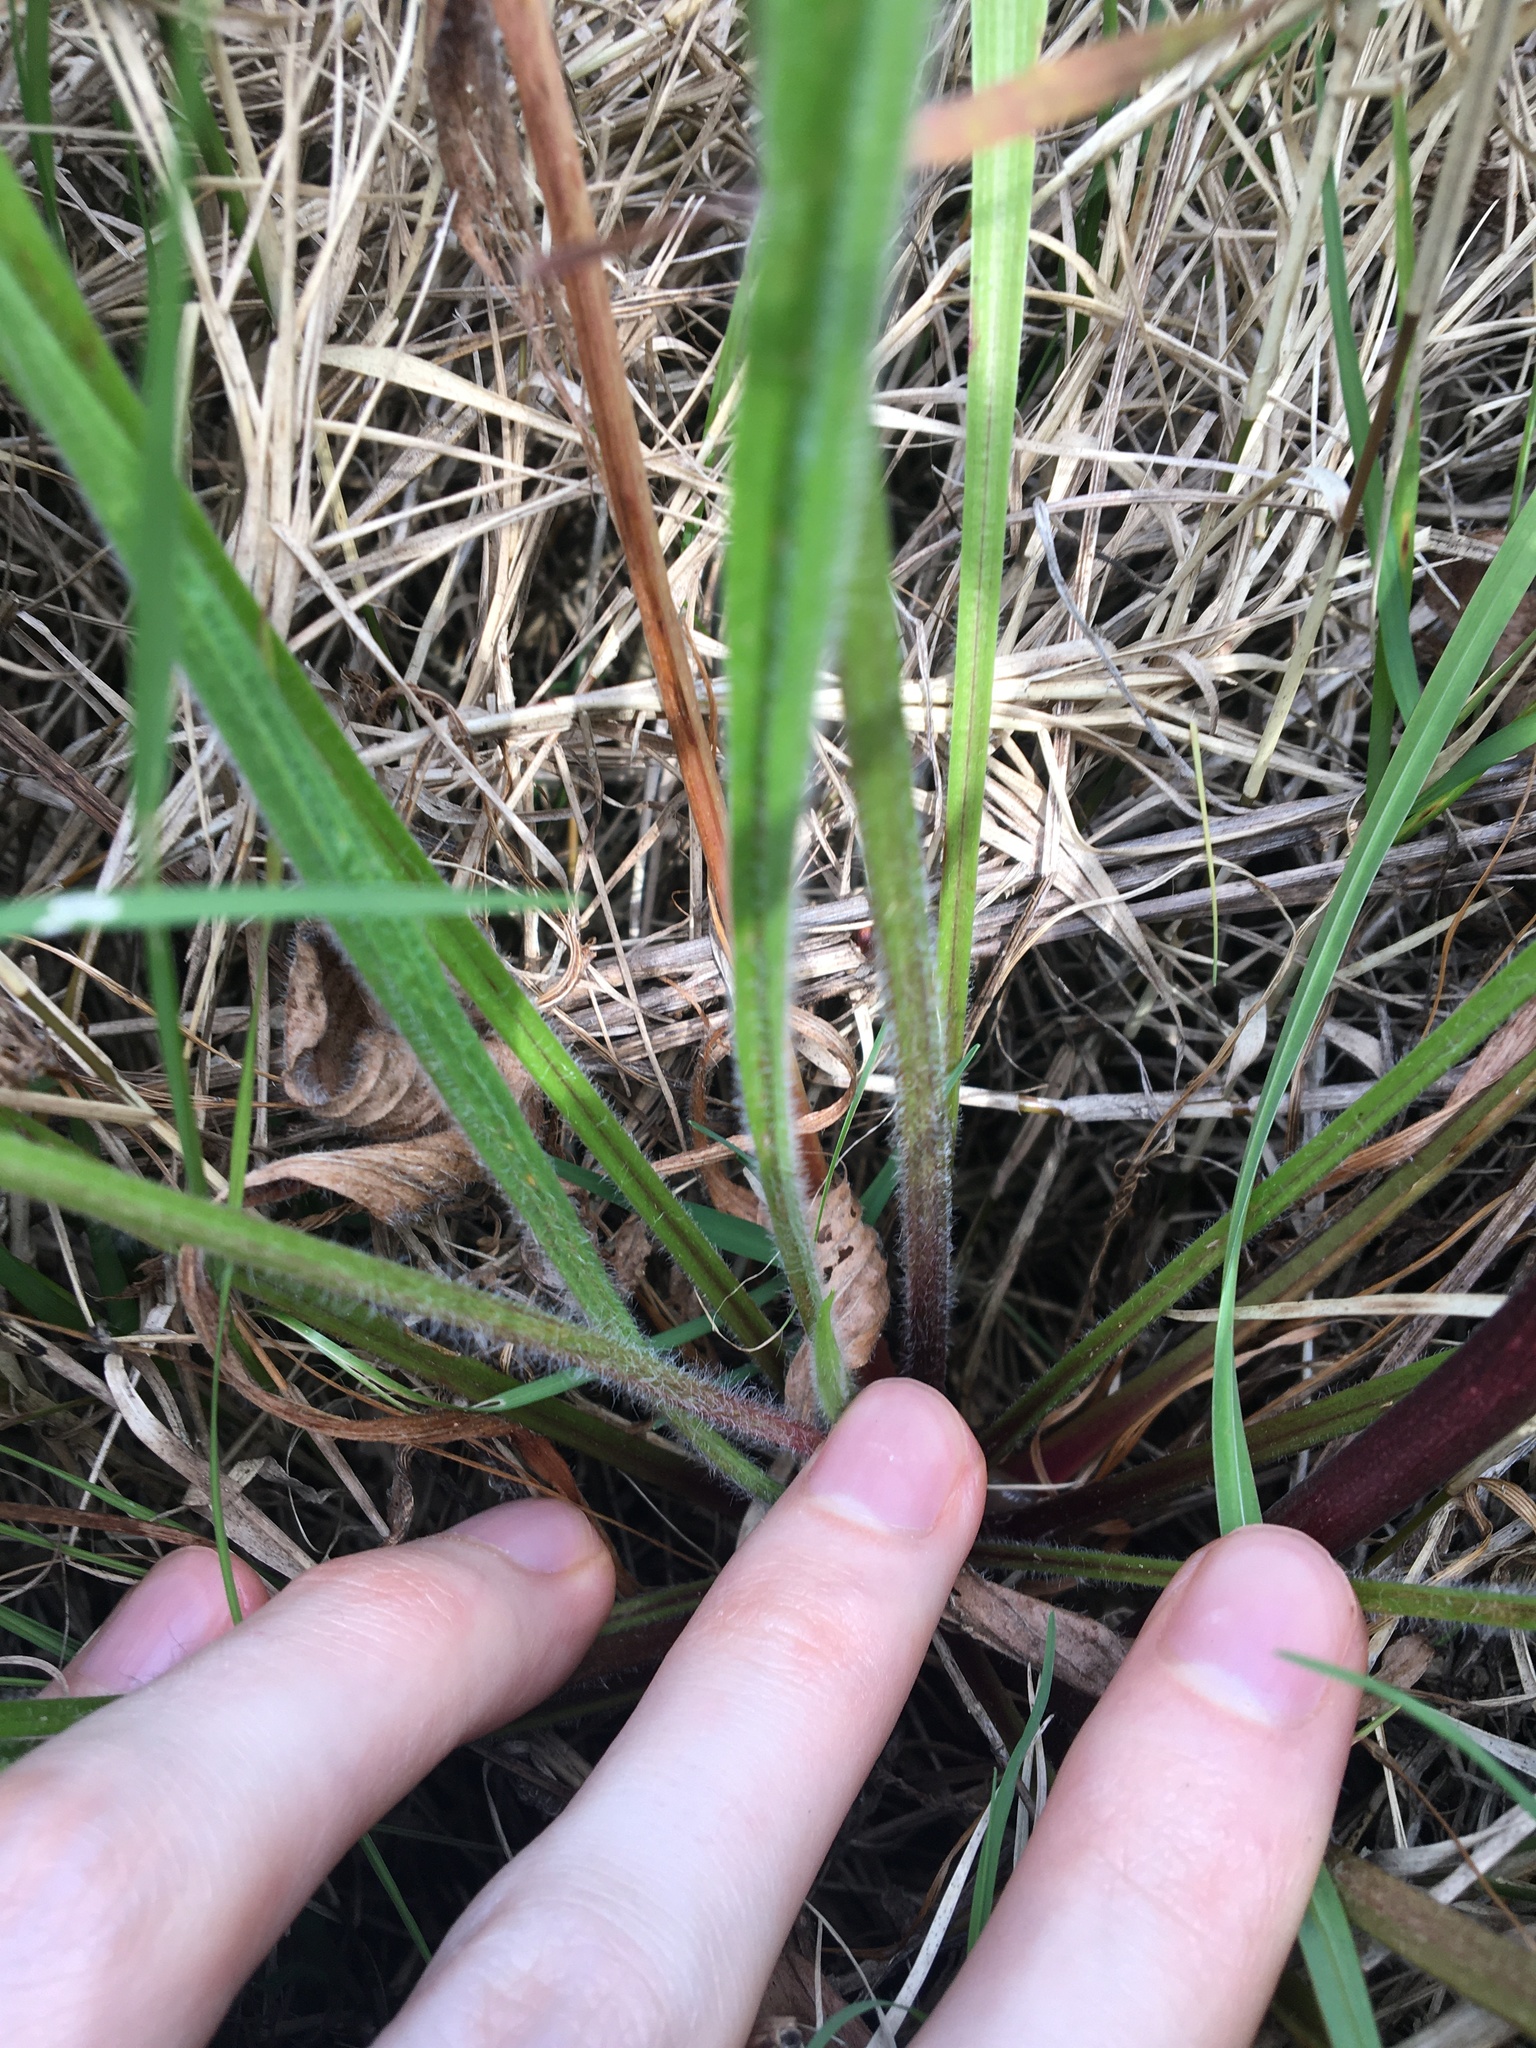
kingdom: Plantae
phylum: Tracheophyta
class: Magnoliopsida
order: Lamiales
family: Plantaginaceae
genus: Plantago
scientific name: Plantago lanceolata
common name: Ribwort plantain
